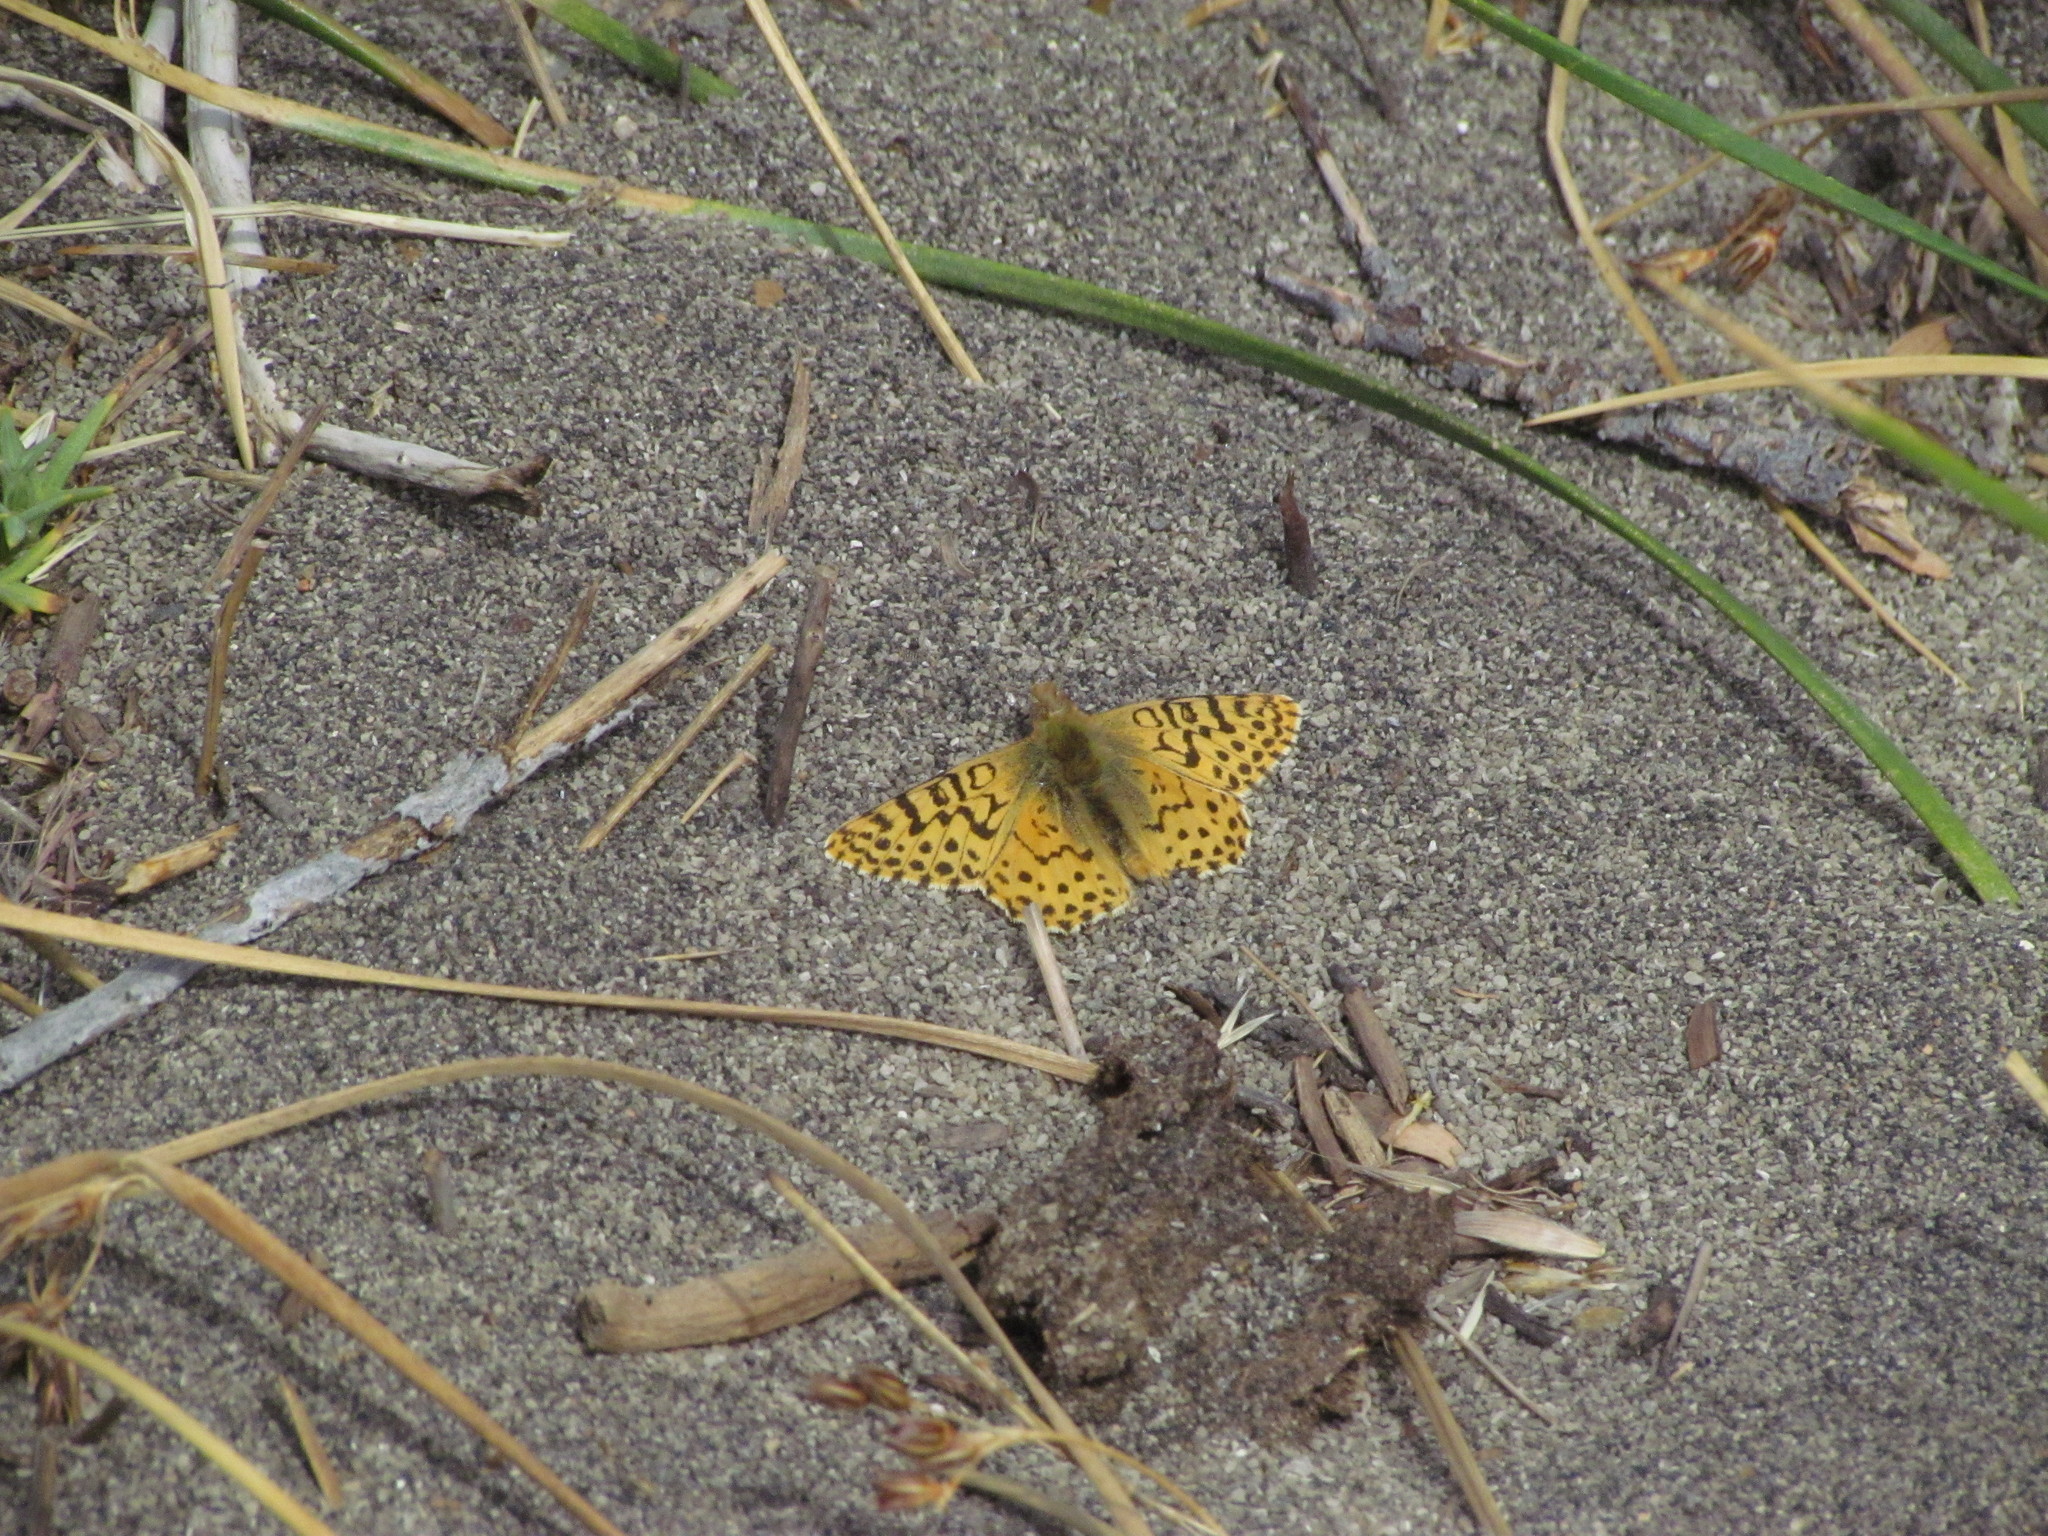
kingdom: Animalia
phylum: Arthropoda
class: Insecta
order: Lepidoptera
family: Nymphalidae
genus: Issoria
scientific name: Issoria Yramea lathonoides
